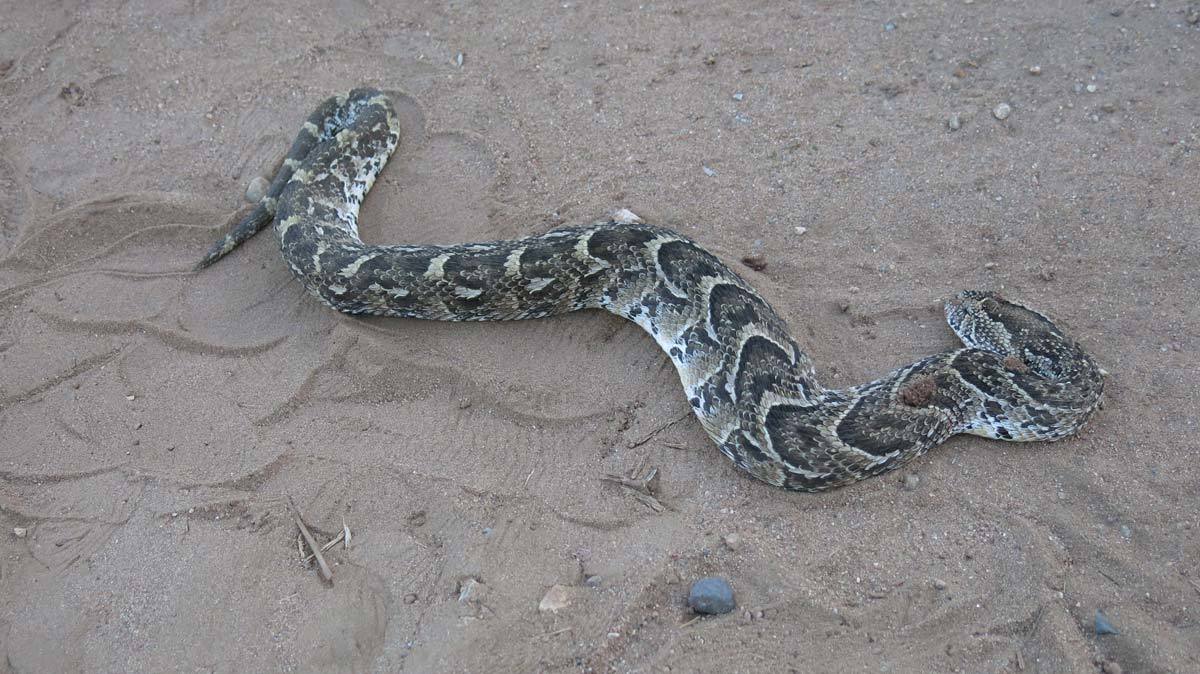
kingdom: Animalia
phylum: Chordata
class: Squamata
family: Viperidae
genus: Bitis
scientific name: Bitis arietans
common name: Puff adder
